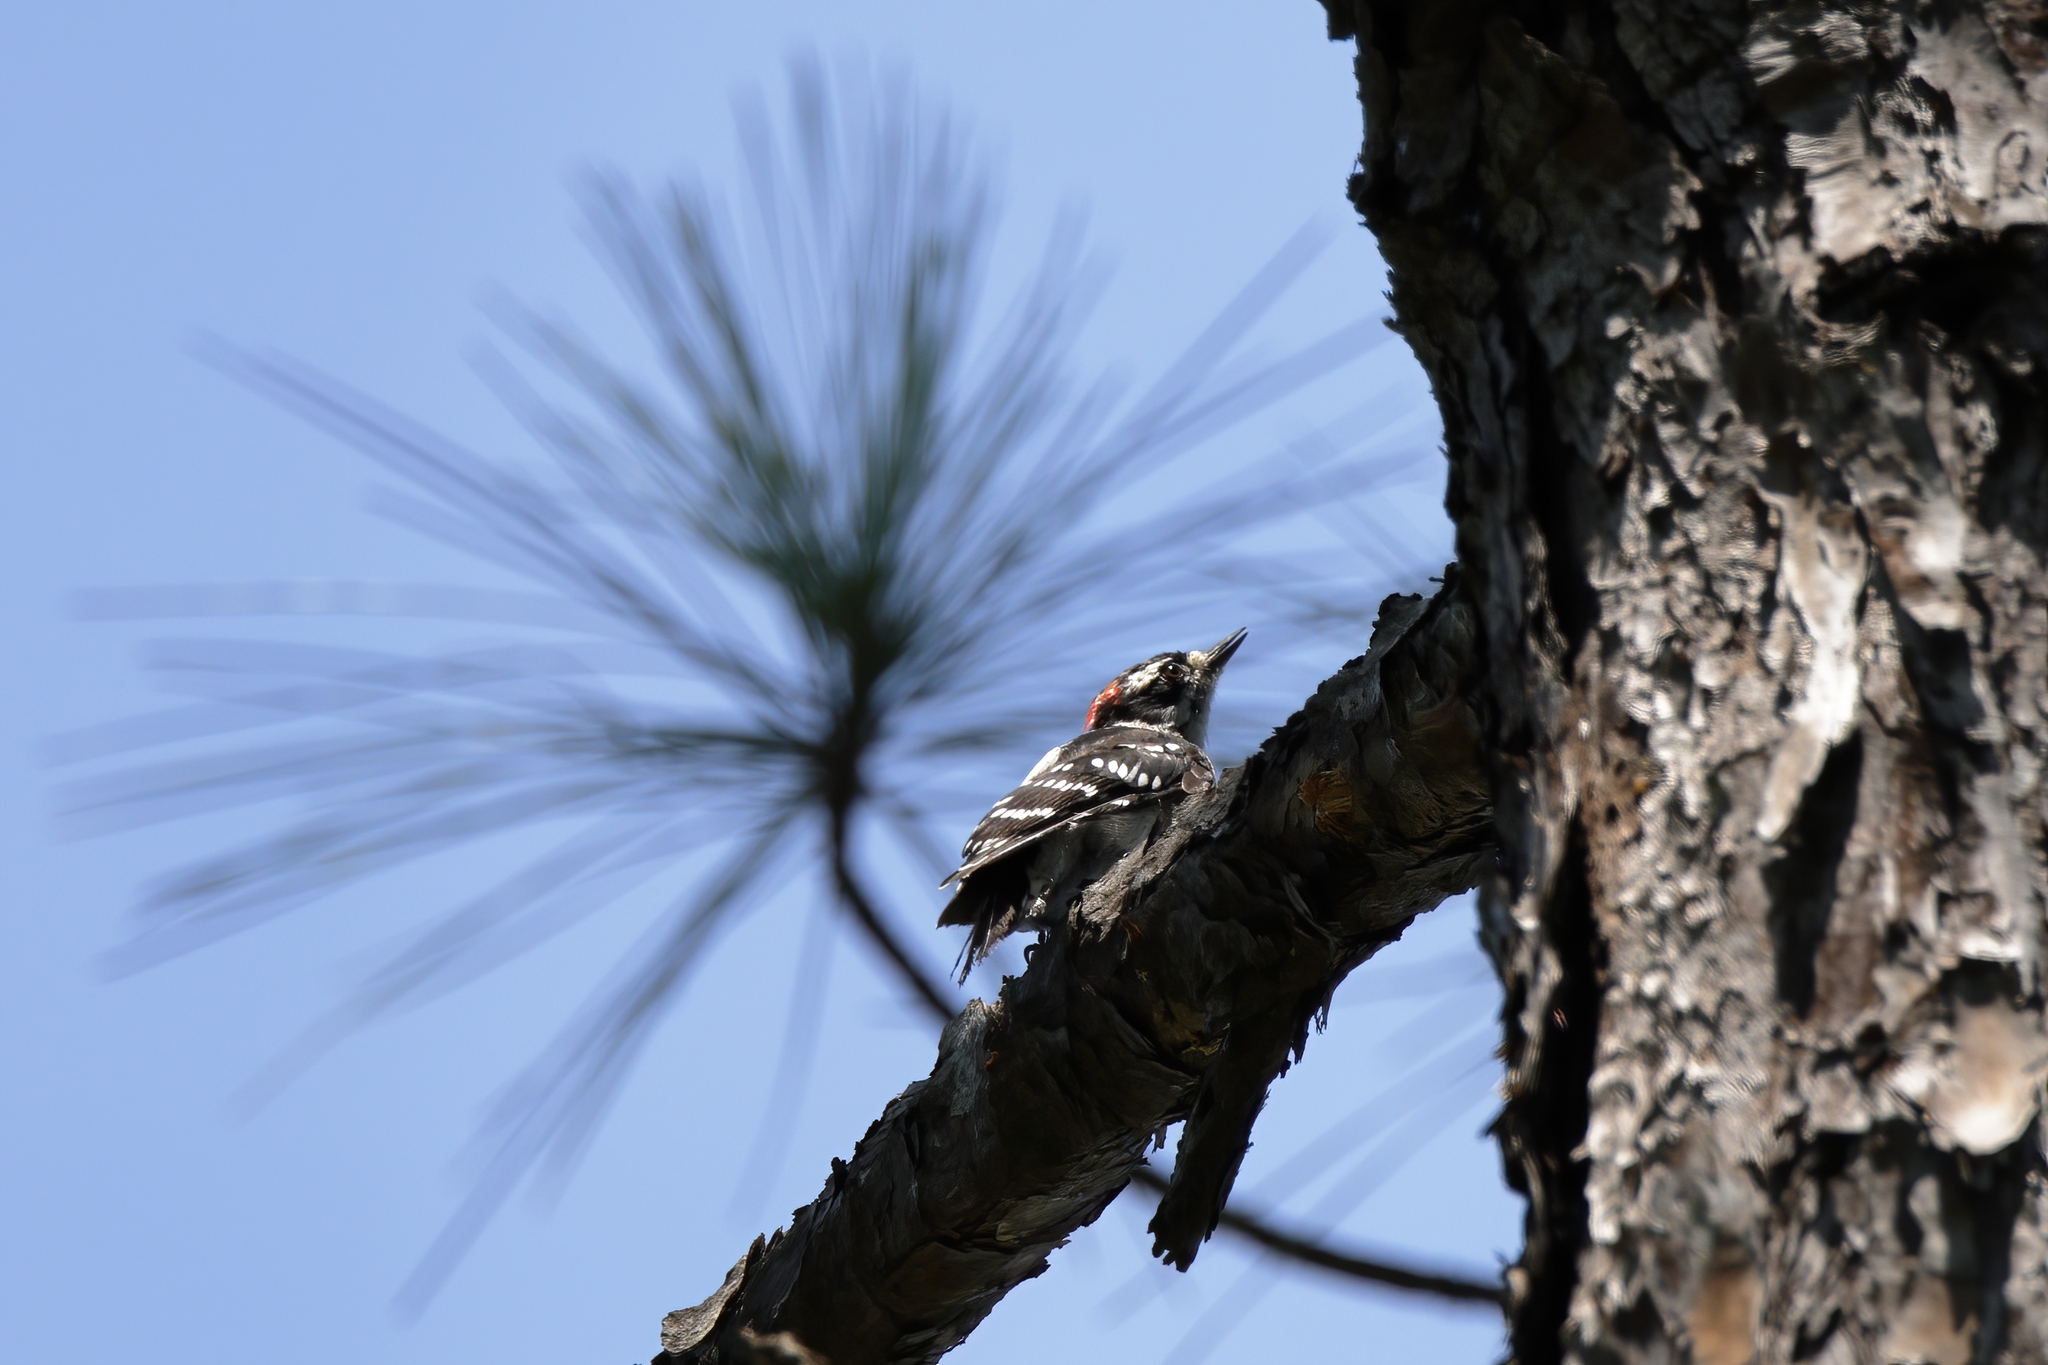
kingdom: Animalia
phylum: Chordata
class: Aves
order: Piciformes
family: Picidae
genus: Dryobates
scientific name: Dryobates pubescens
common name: Downy woodpecker
